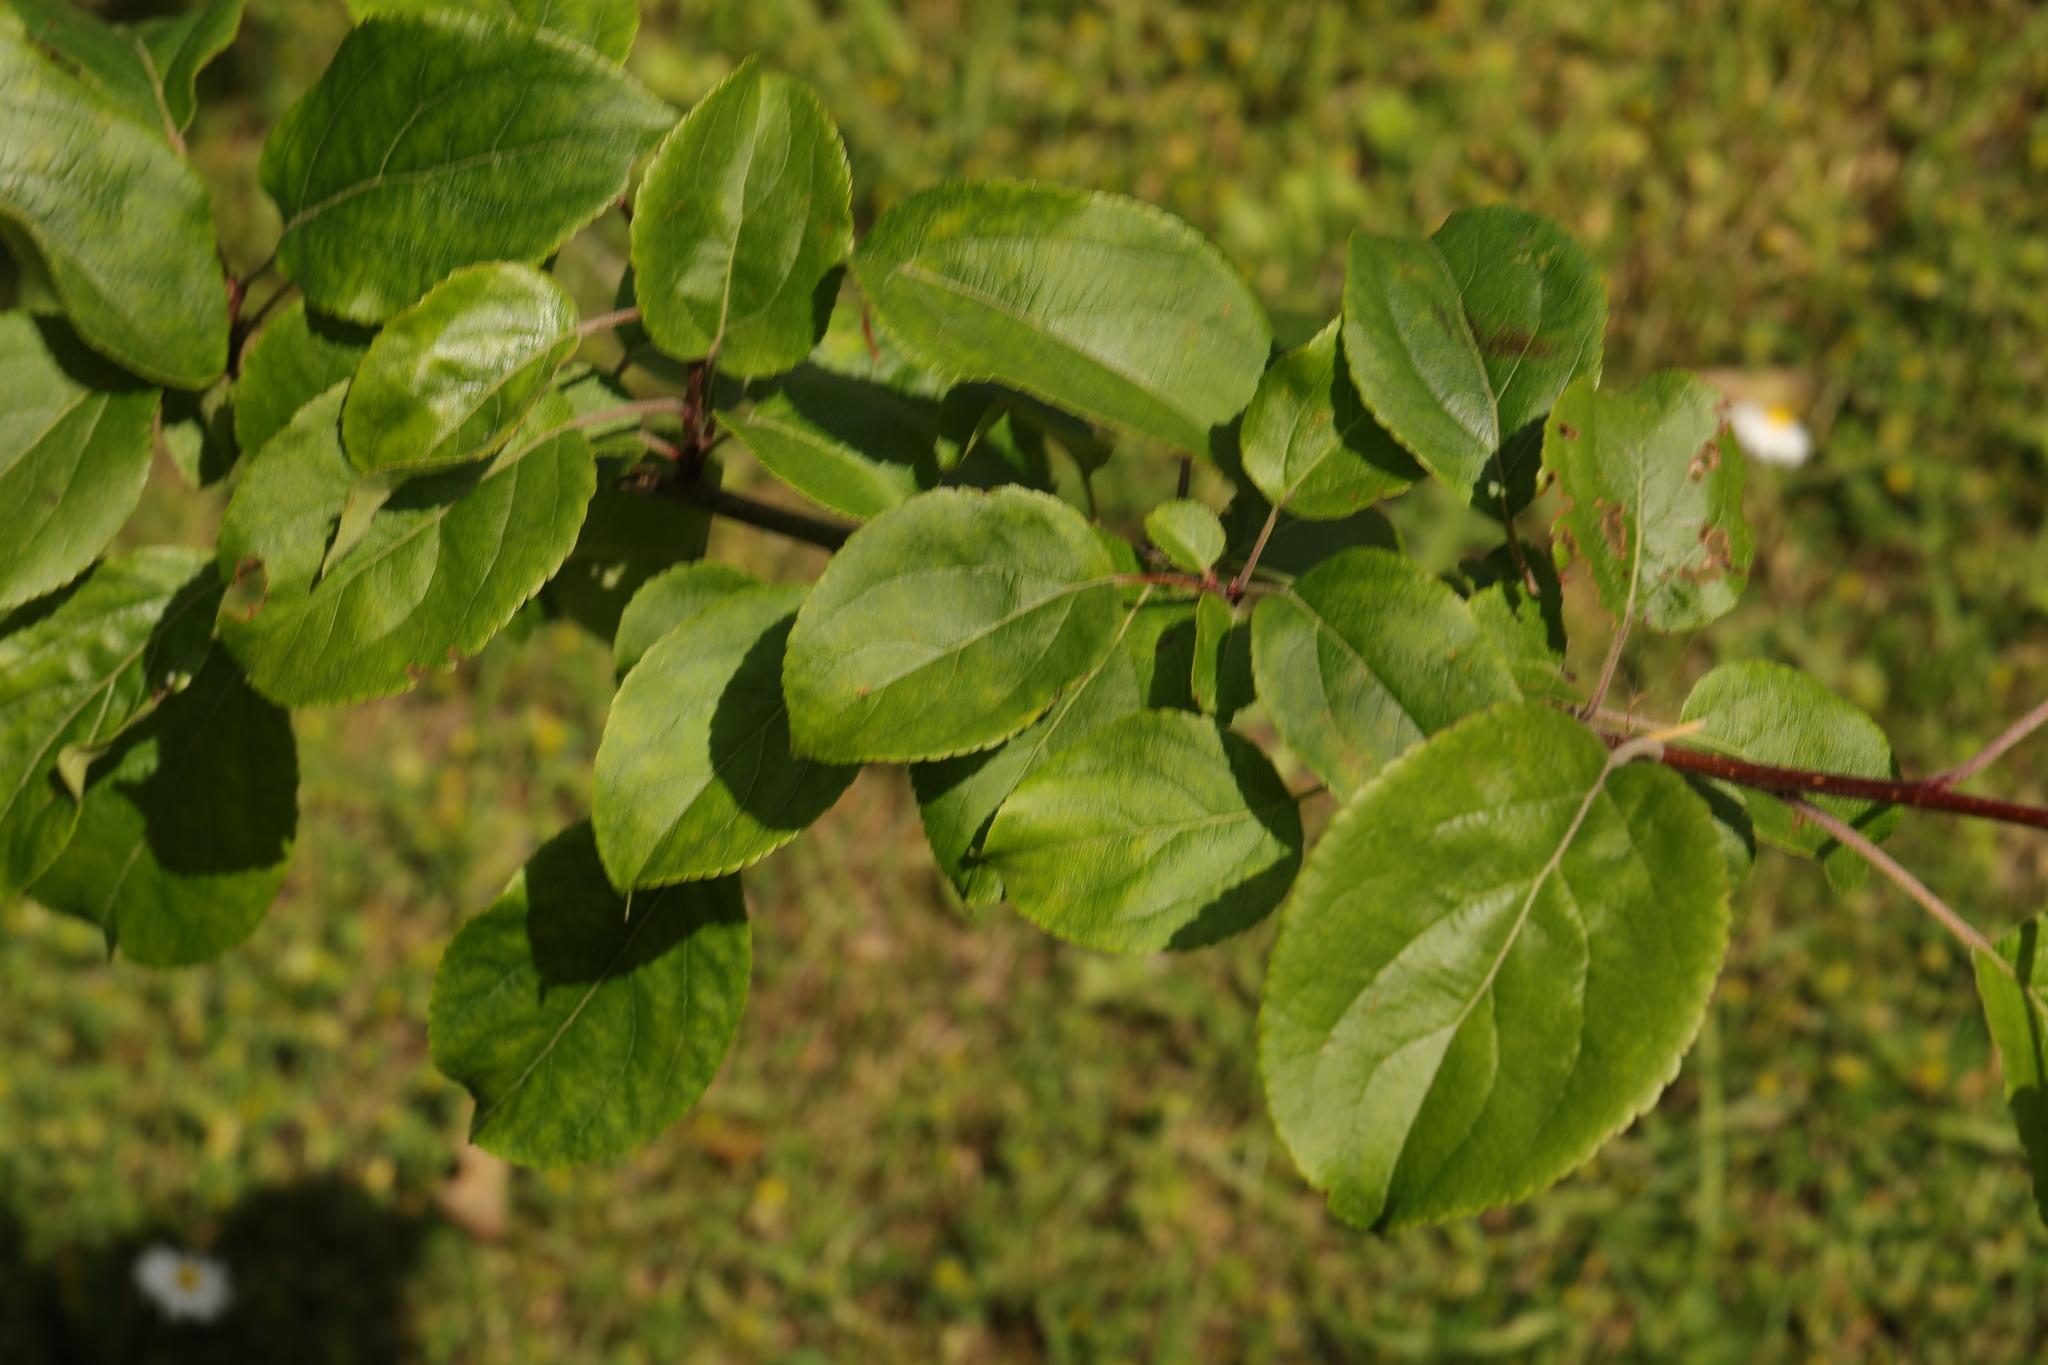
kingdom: Plantae
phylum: Tracheophyta
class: Magnoliopsida
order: Rosales
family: Rosaceae
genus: Malus
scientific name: Malus domestica
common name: Apple
